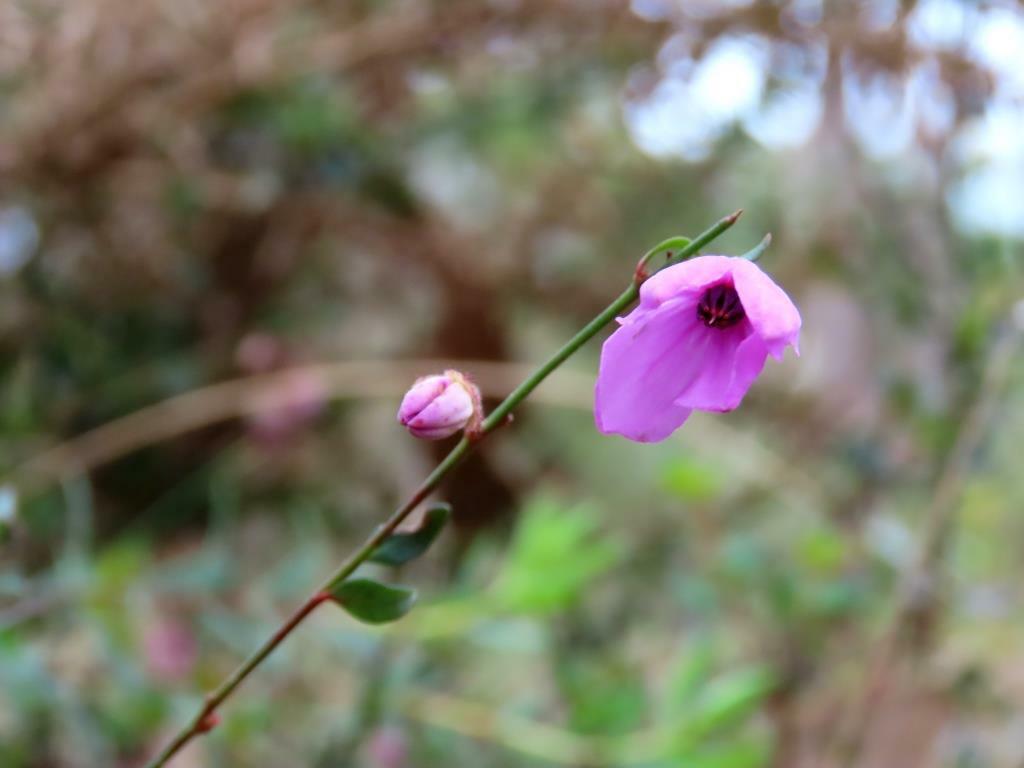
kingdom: Plantae
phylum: Tracheophyta
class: Magnoliopsida
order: Oxalidales
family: Elaeocarpaceae
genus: Tetratheca
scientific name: Tetratheca ciliata
